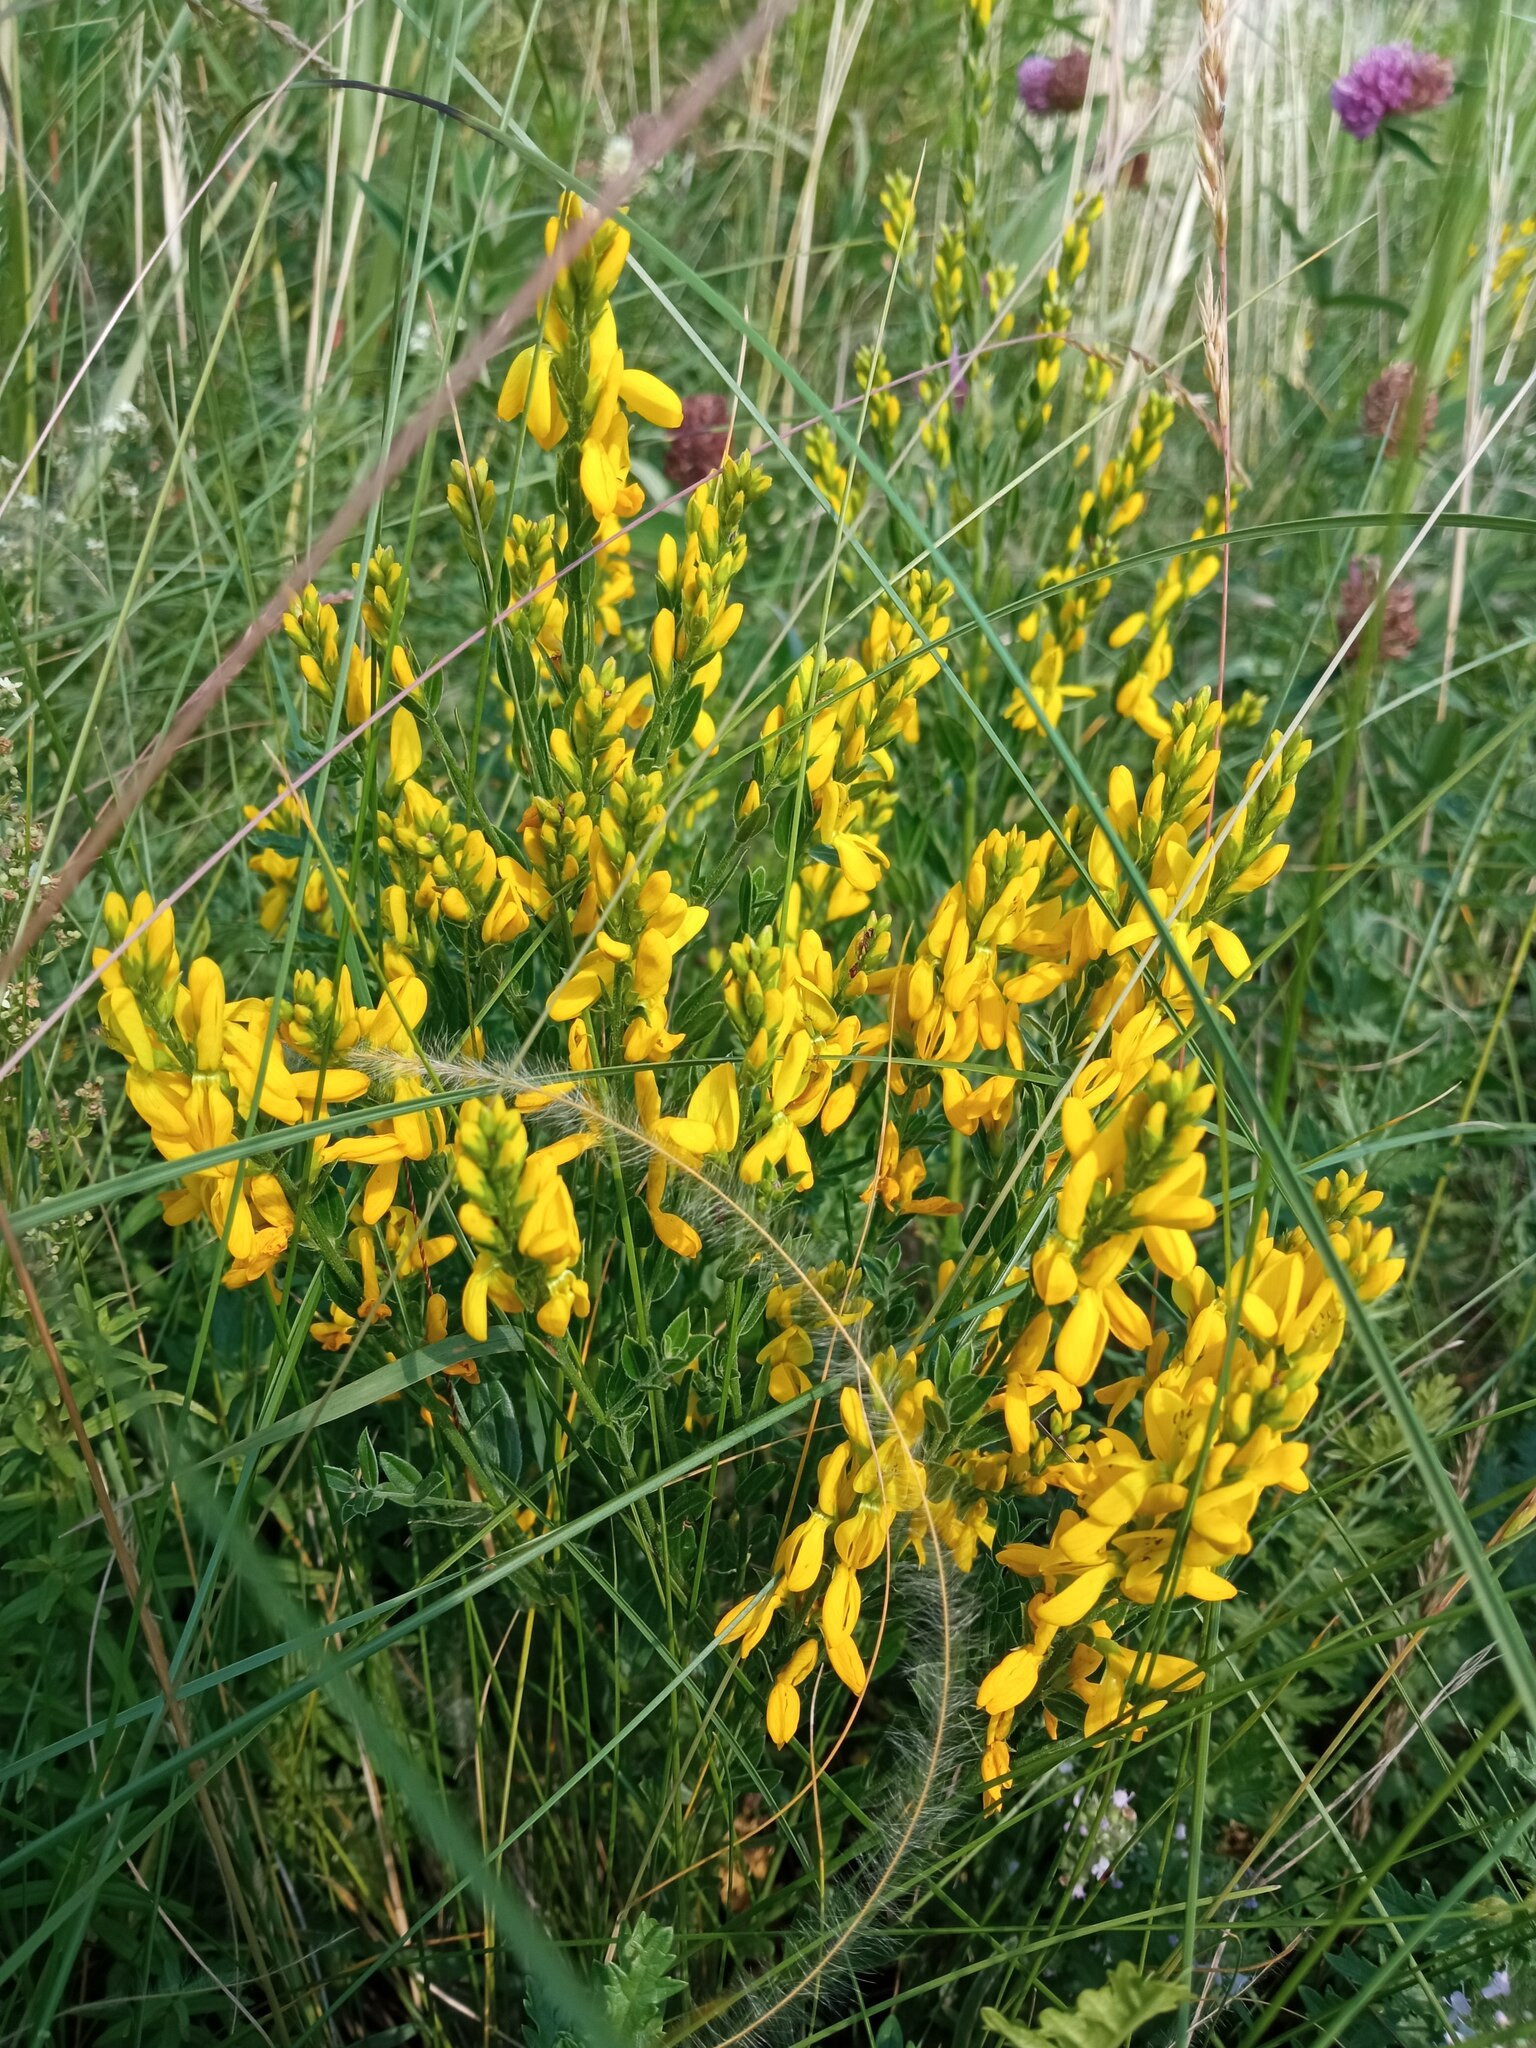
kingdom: Plantae
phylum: Tracheophyta
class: Magnoliopsida
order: Fabales
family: Fabaceae
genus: Genista
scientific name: Genista tinctoria
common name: Dyer's greenweed
